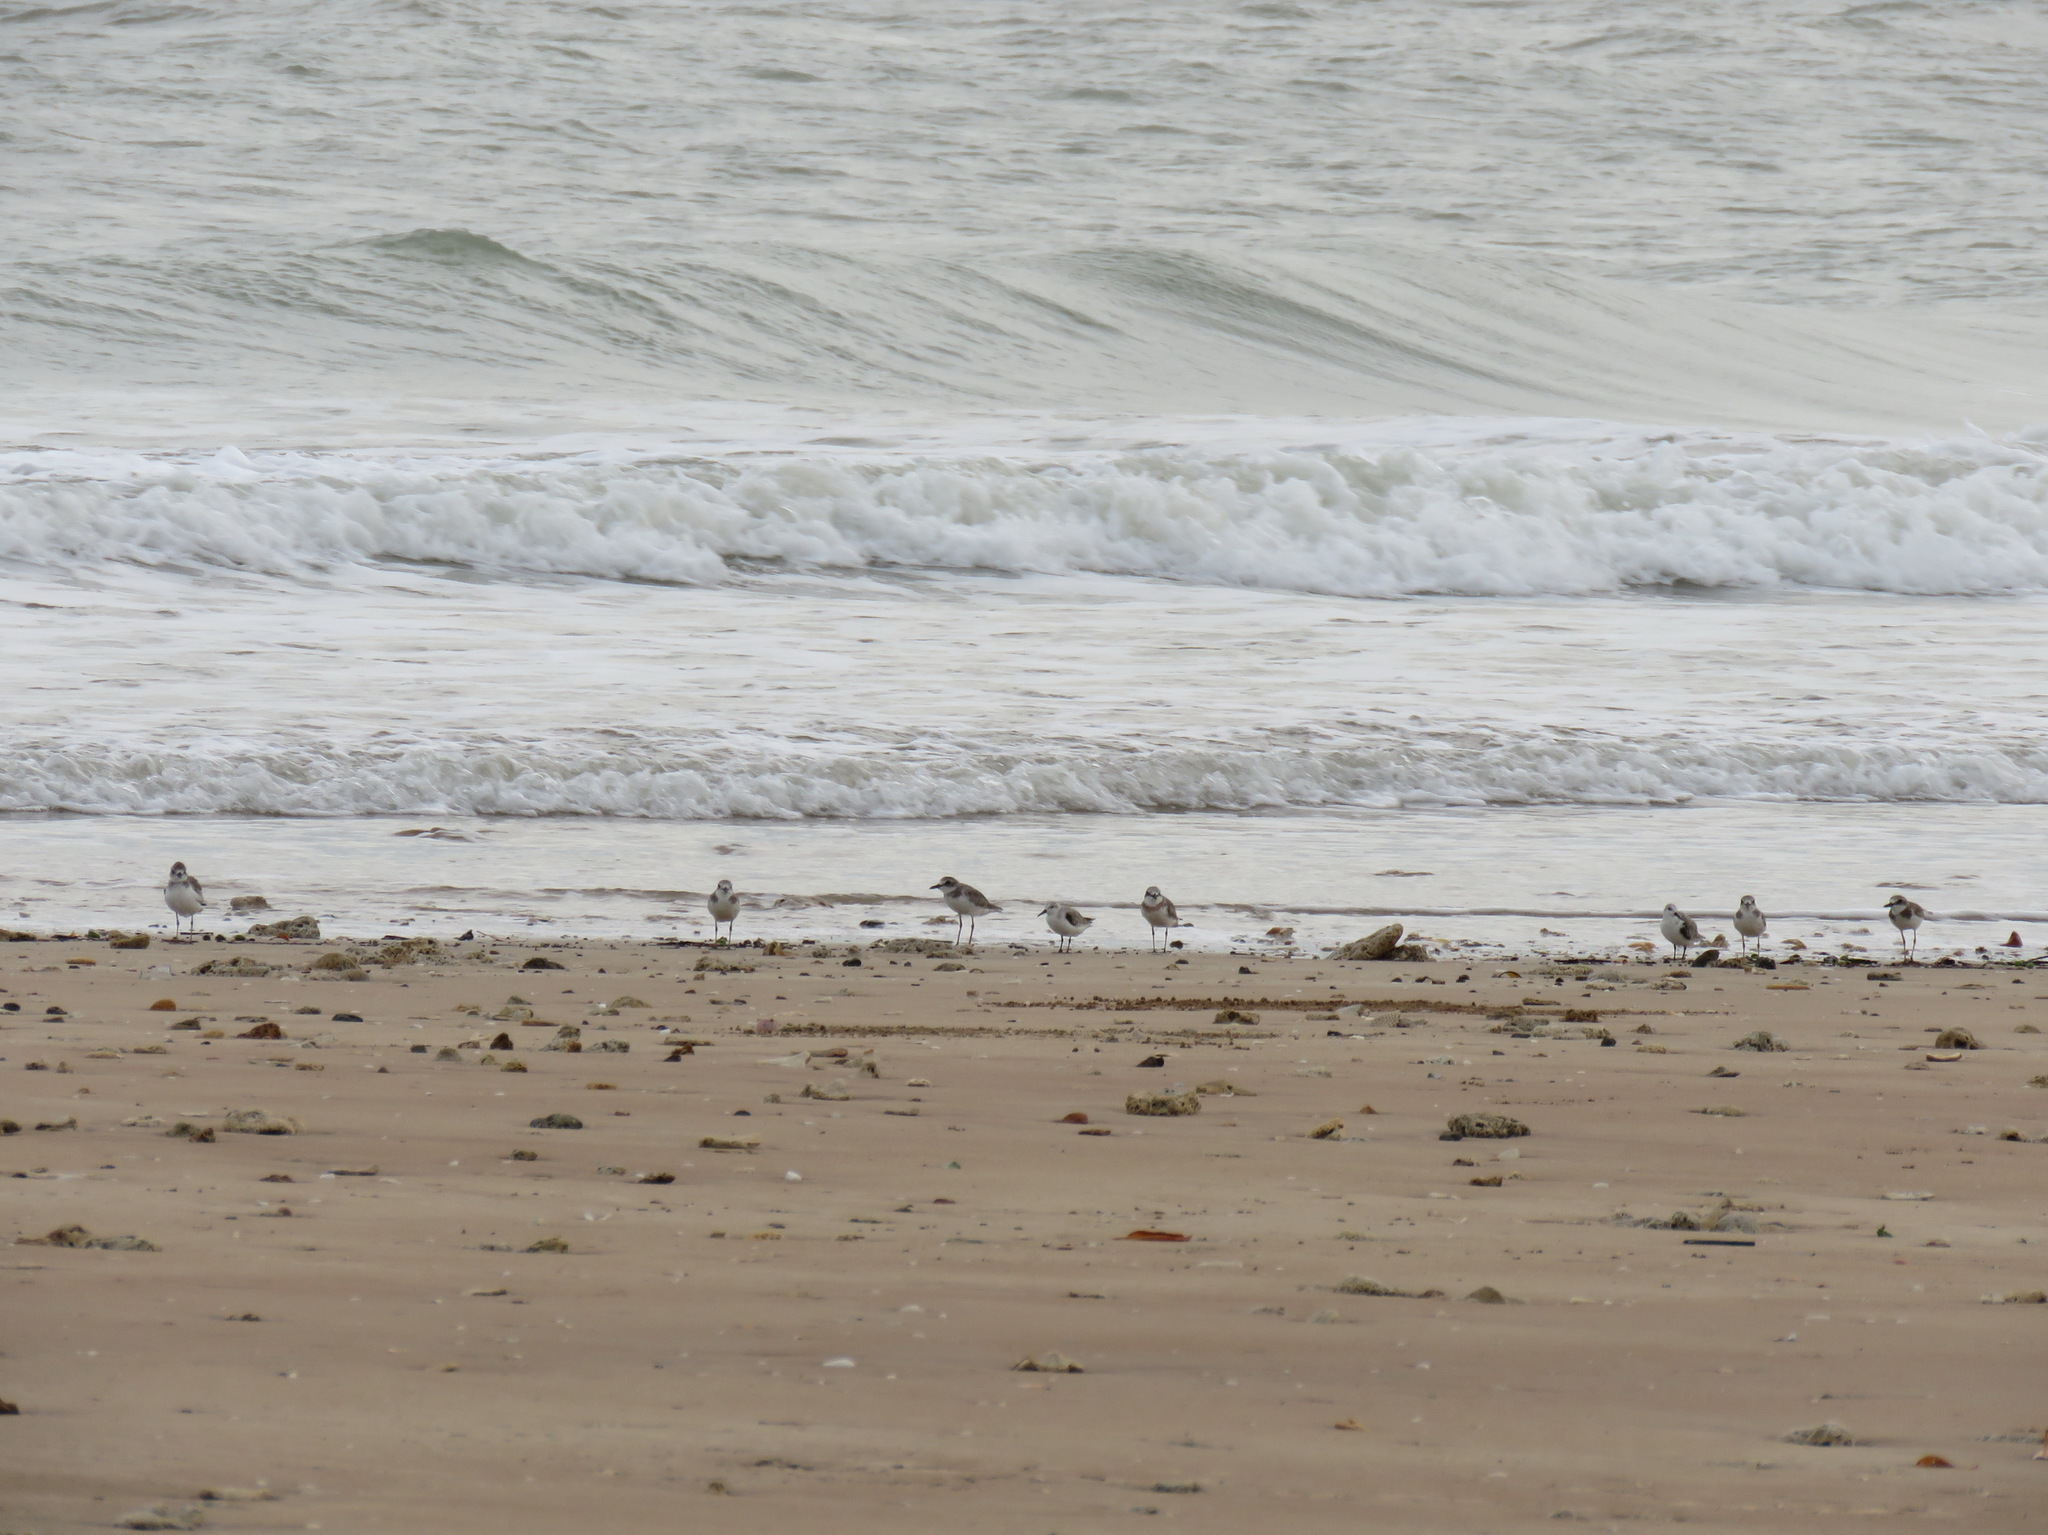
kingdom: Animalia
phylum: Chordata
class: Aves
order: Charadriiformes
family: Scolopacidae
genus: Calidris
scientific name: Calidris alba
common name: Sanderling
